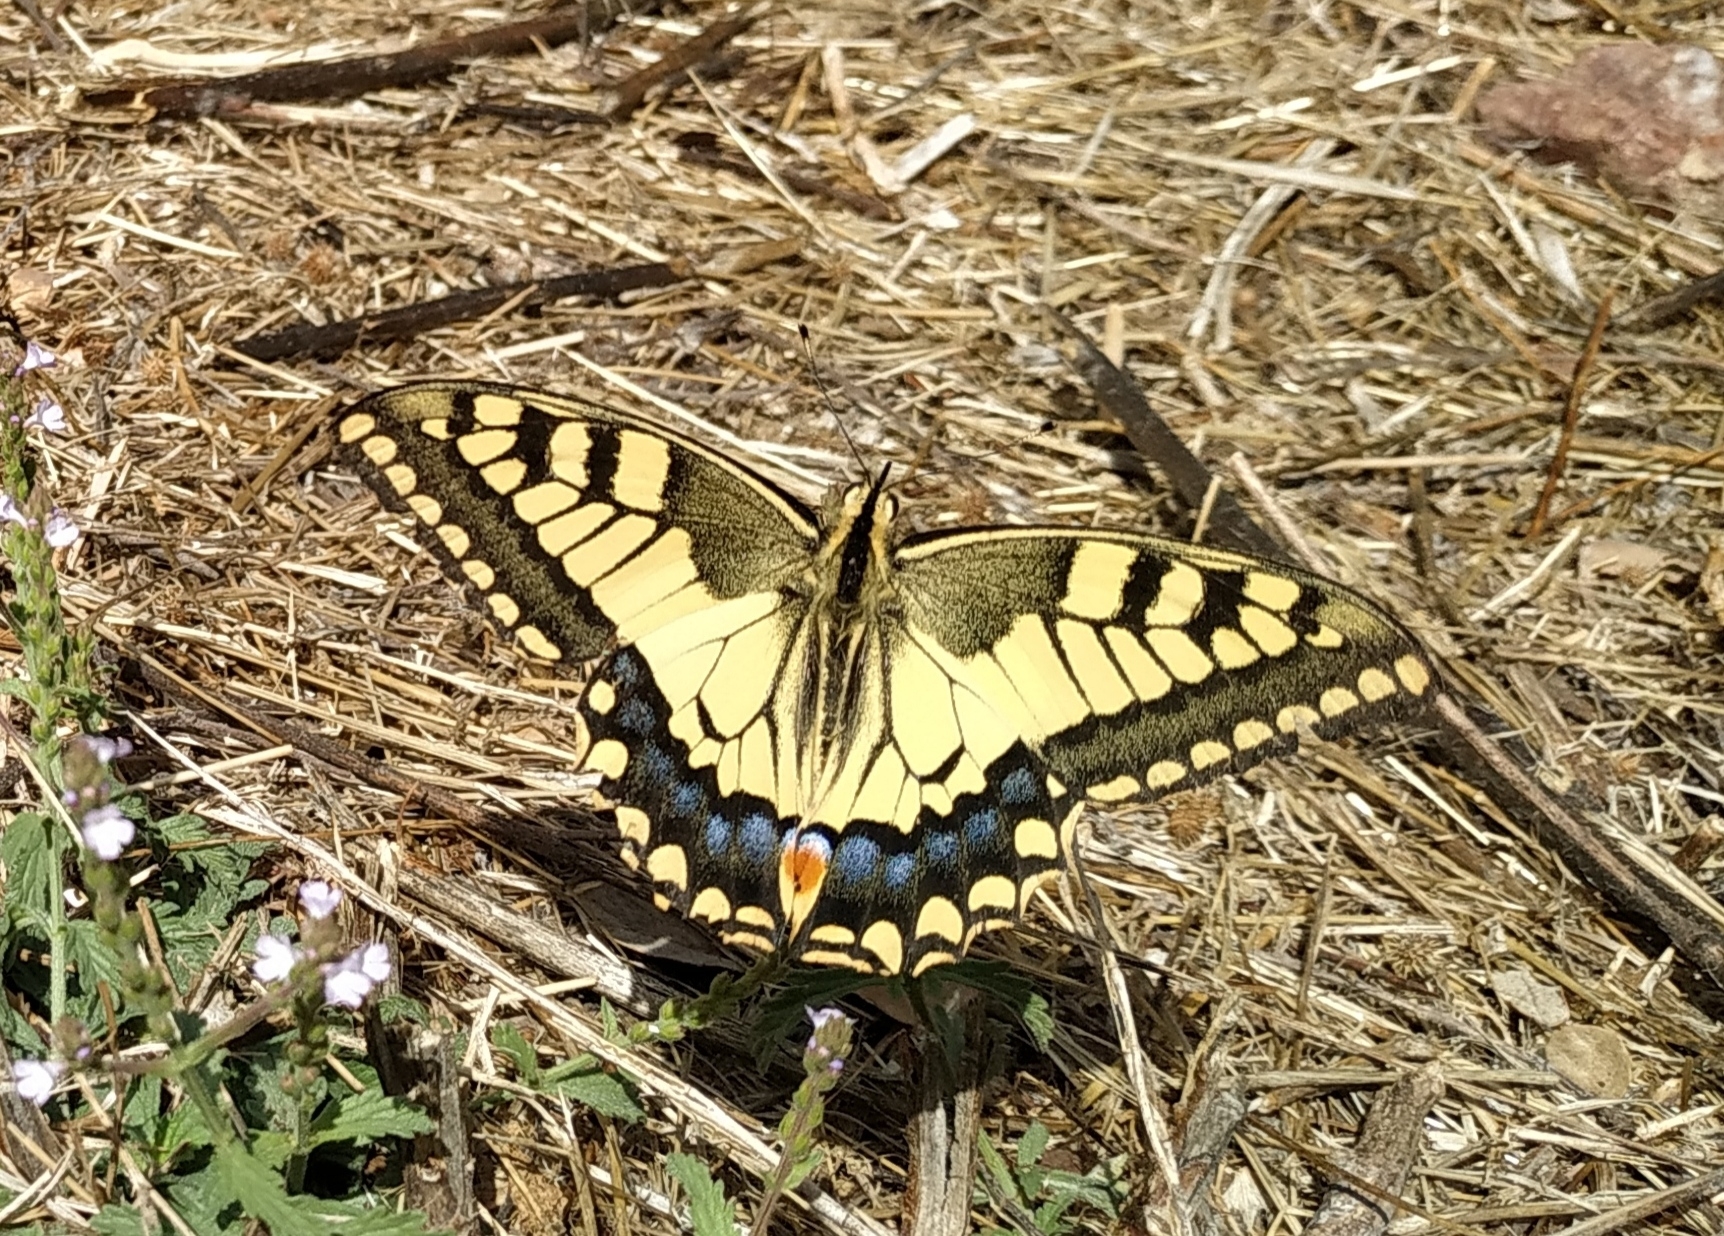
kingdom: Animalia
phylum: Arthropoda
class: Insecta
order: Lepidoptera
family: Papilionidae
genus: Papilio
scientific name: Papilio machaon
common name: Swallowtail
